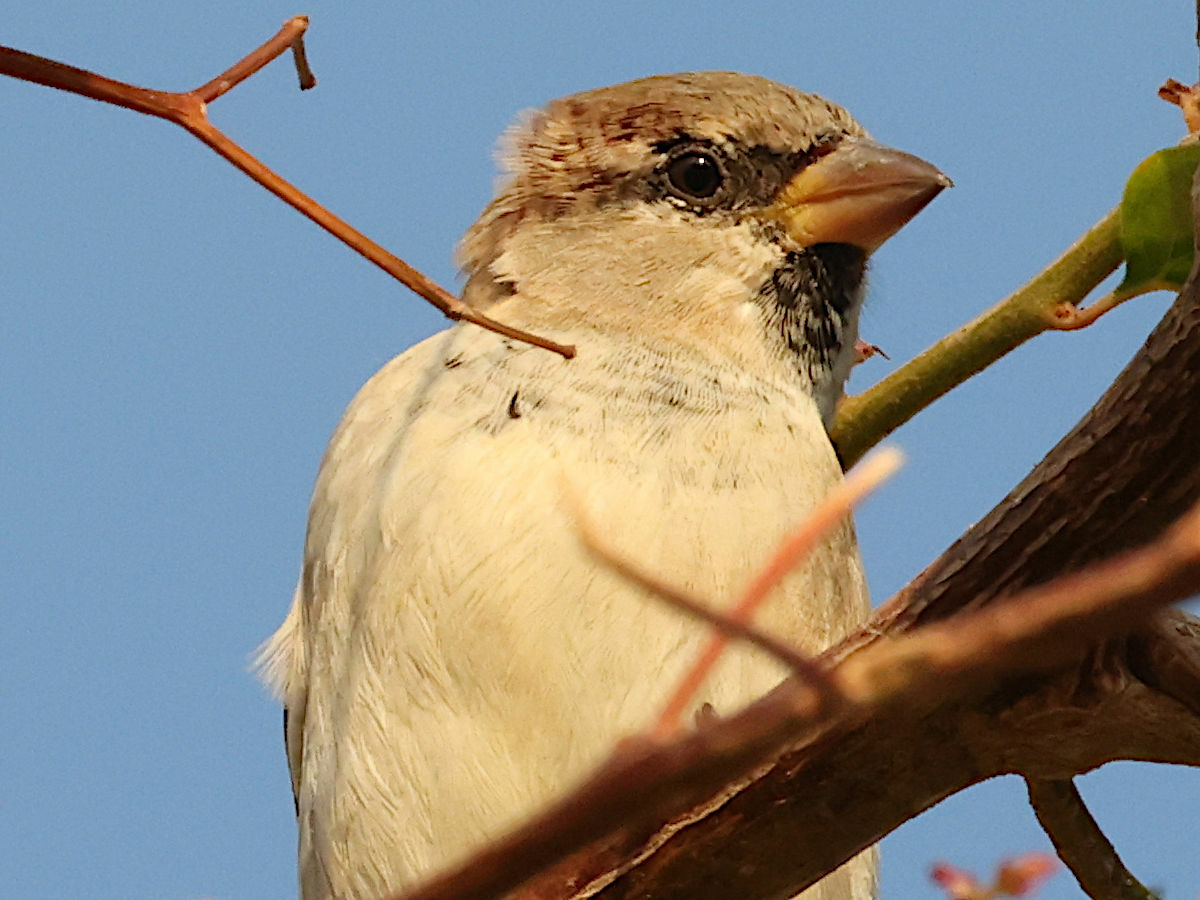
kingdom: Animalia
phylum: Chordata
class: Aves
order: Passeriformes
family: Passeridae
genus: Passer
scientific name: Passer domesticus
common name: House sparrow
